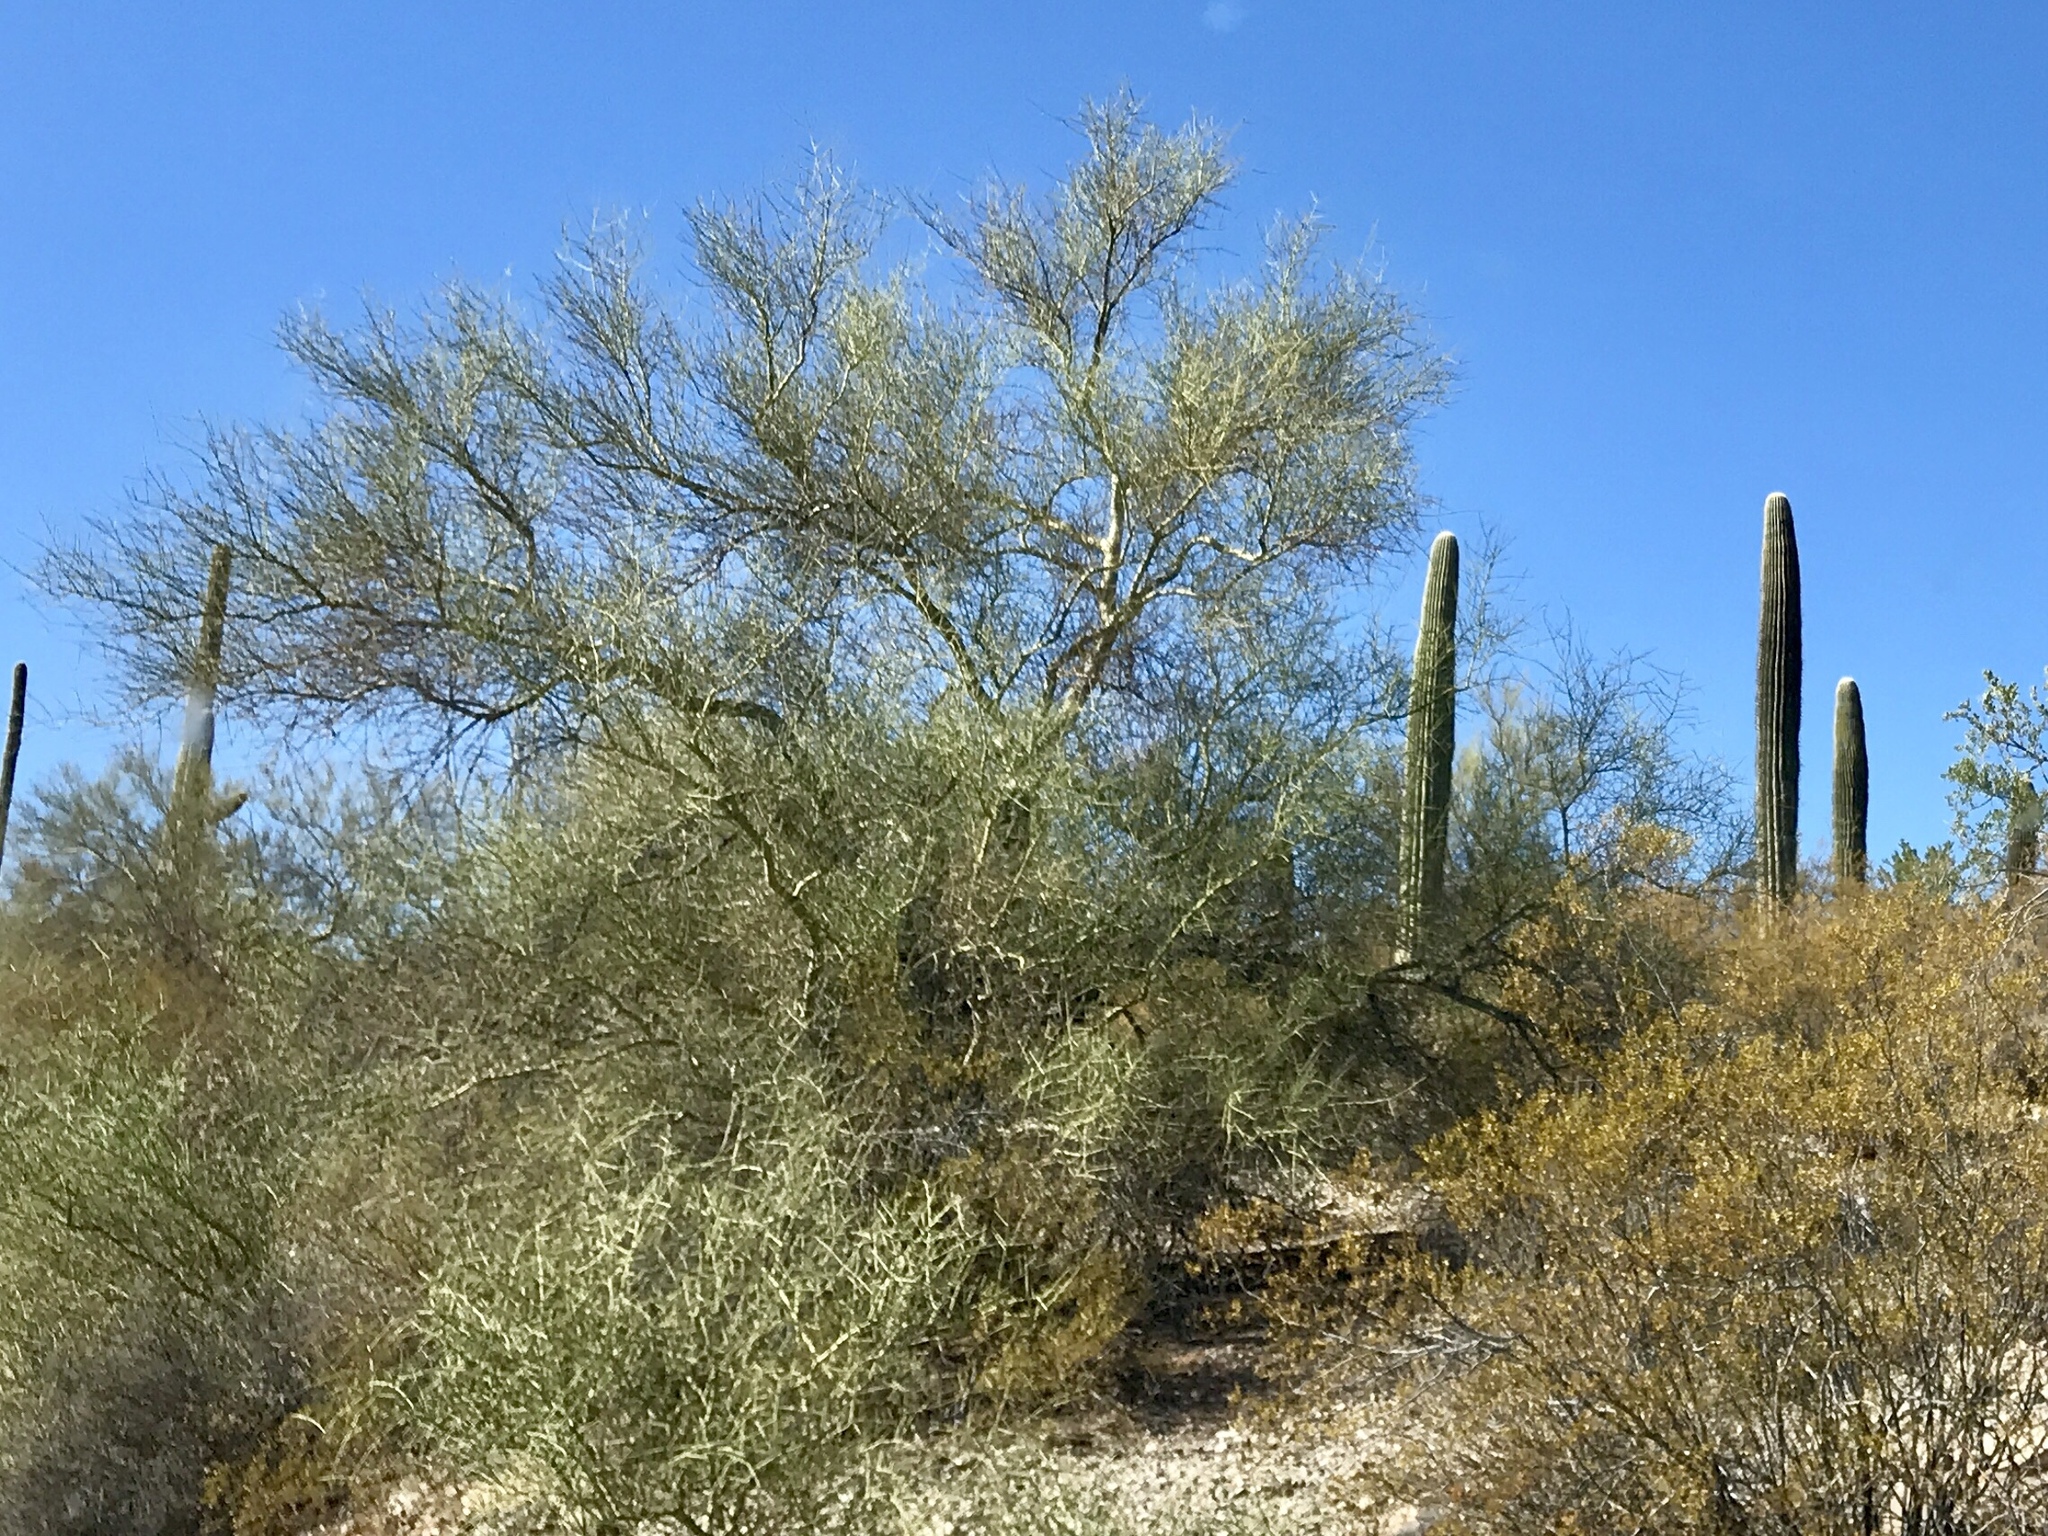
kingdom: Plantae
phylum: Tracheophyta
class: Magnoliopsida
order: Fabales
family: Fabaceae
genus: Parkinsonia
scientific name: Parkinsonia microphylla
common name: Yellow paloverde
